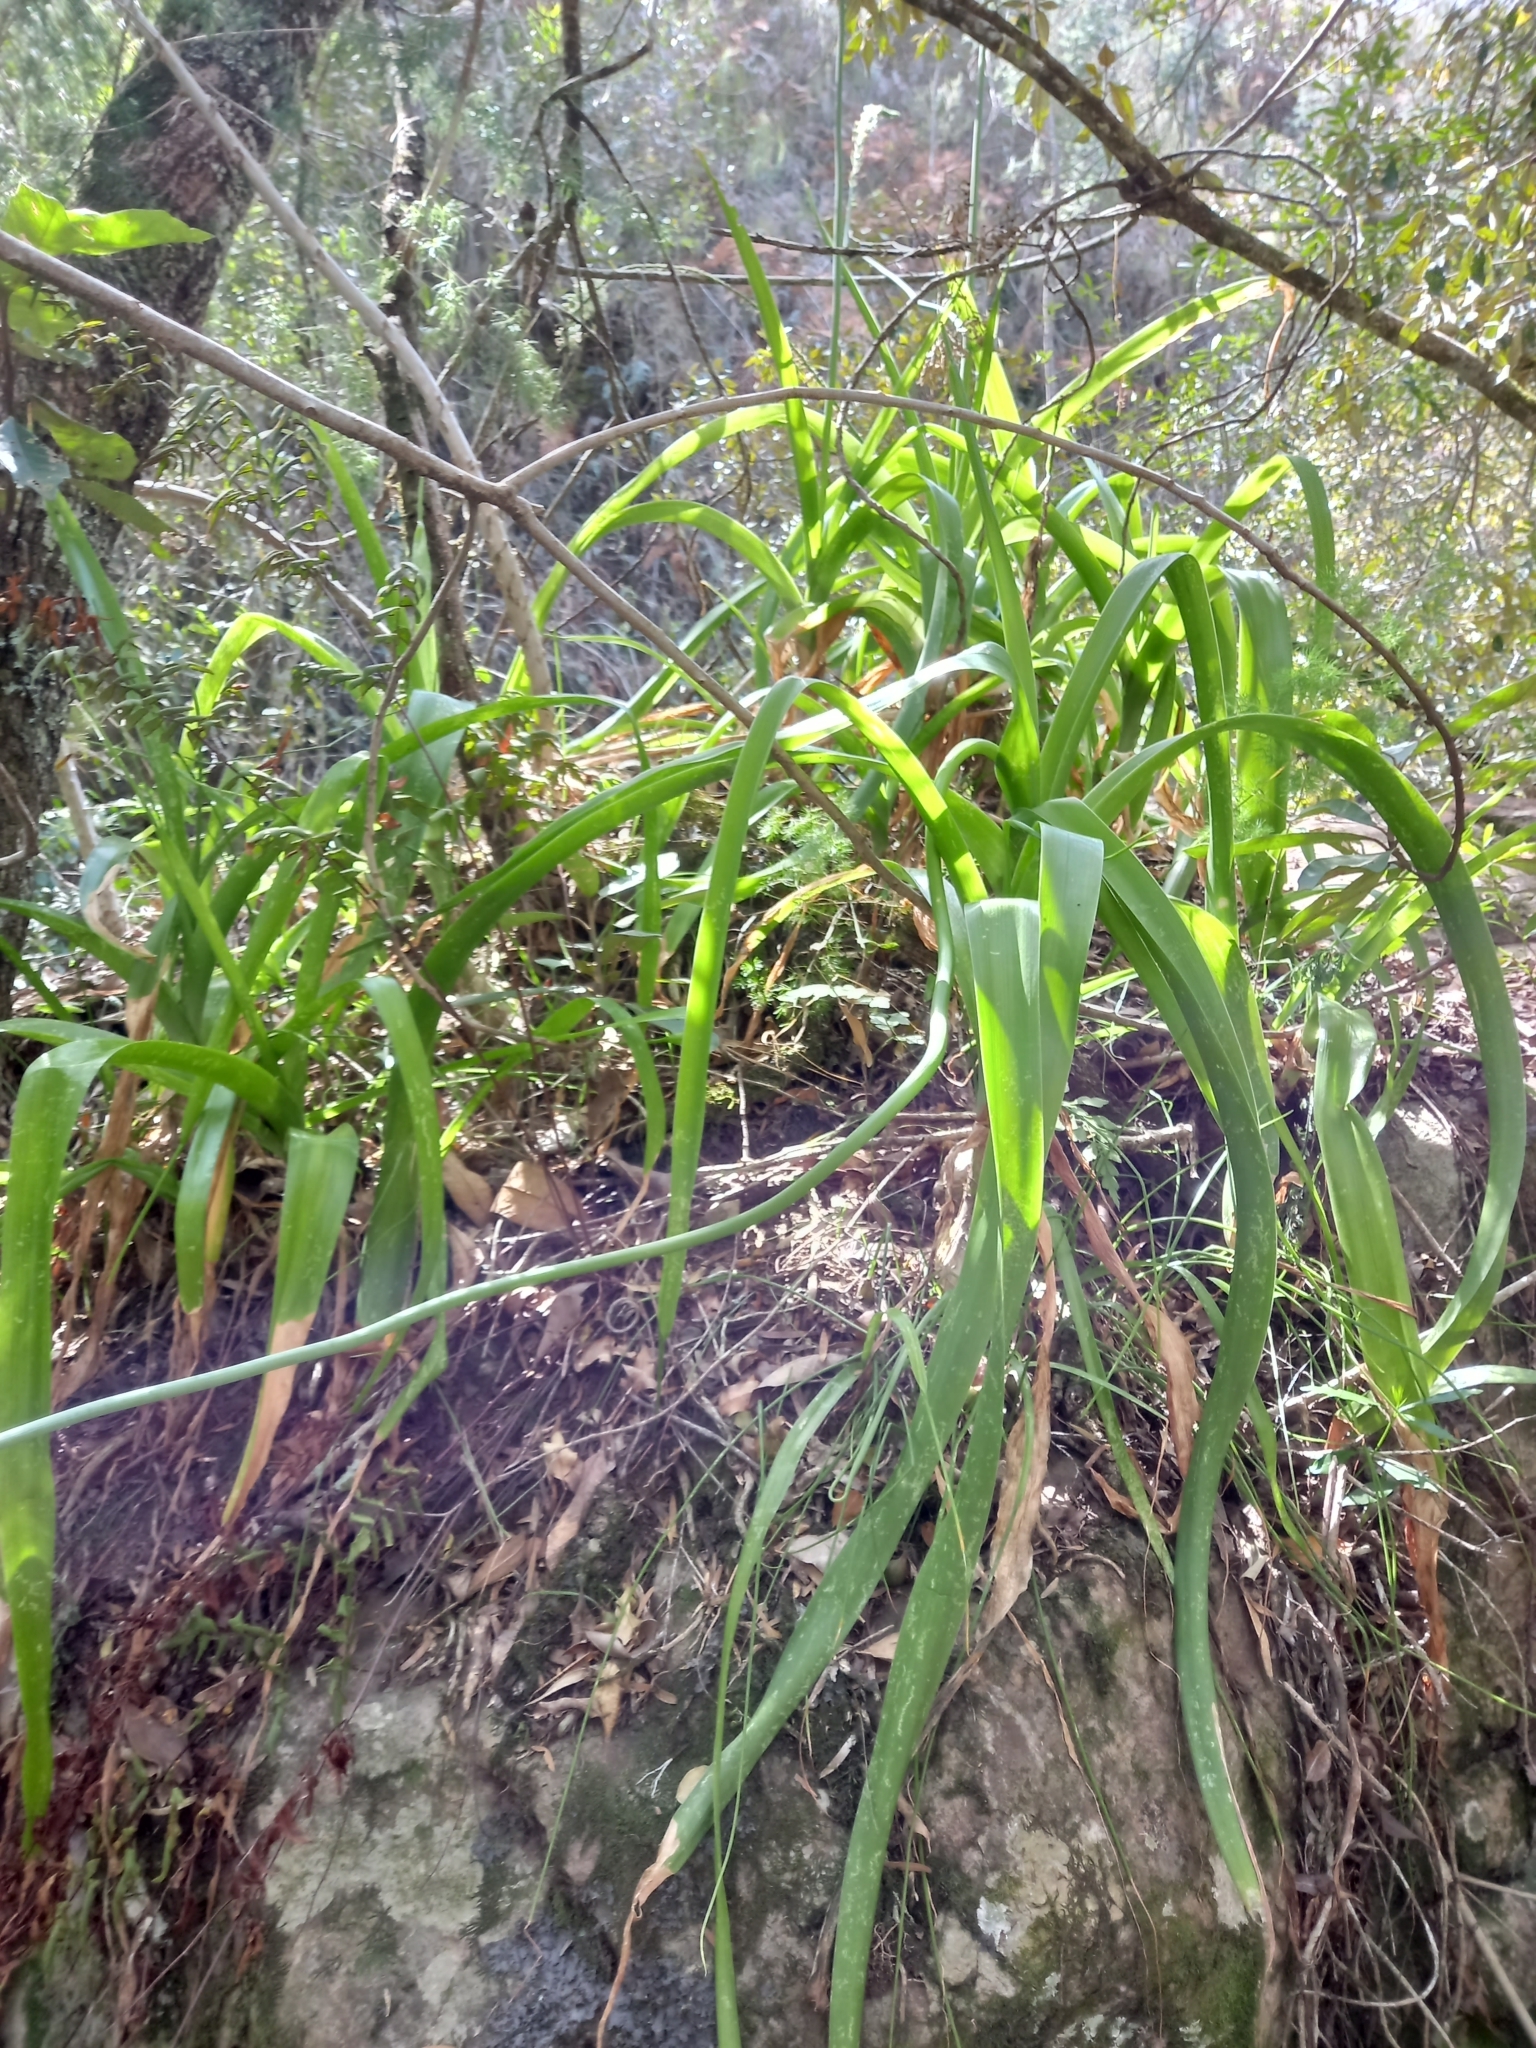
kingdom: Plantae
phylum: Tracheophyta
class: Liliopsida
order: Asparagales
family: Asparagaceae
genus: Albuca
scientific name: Albuca bracteata
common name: Sea-onion
